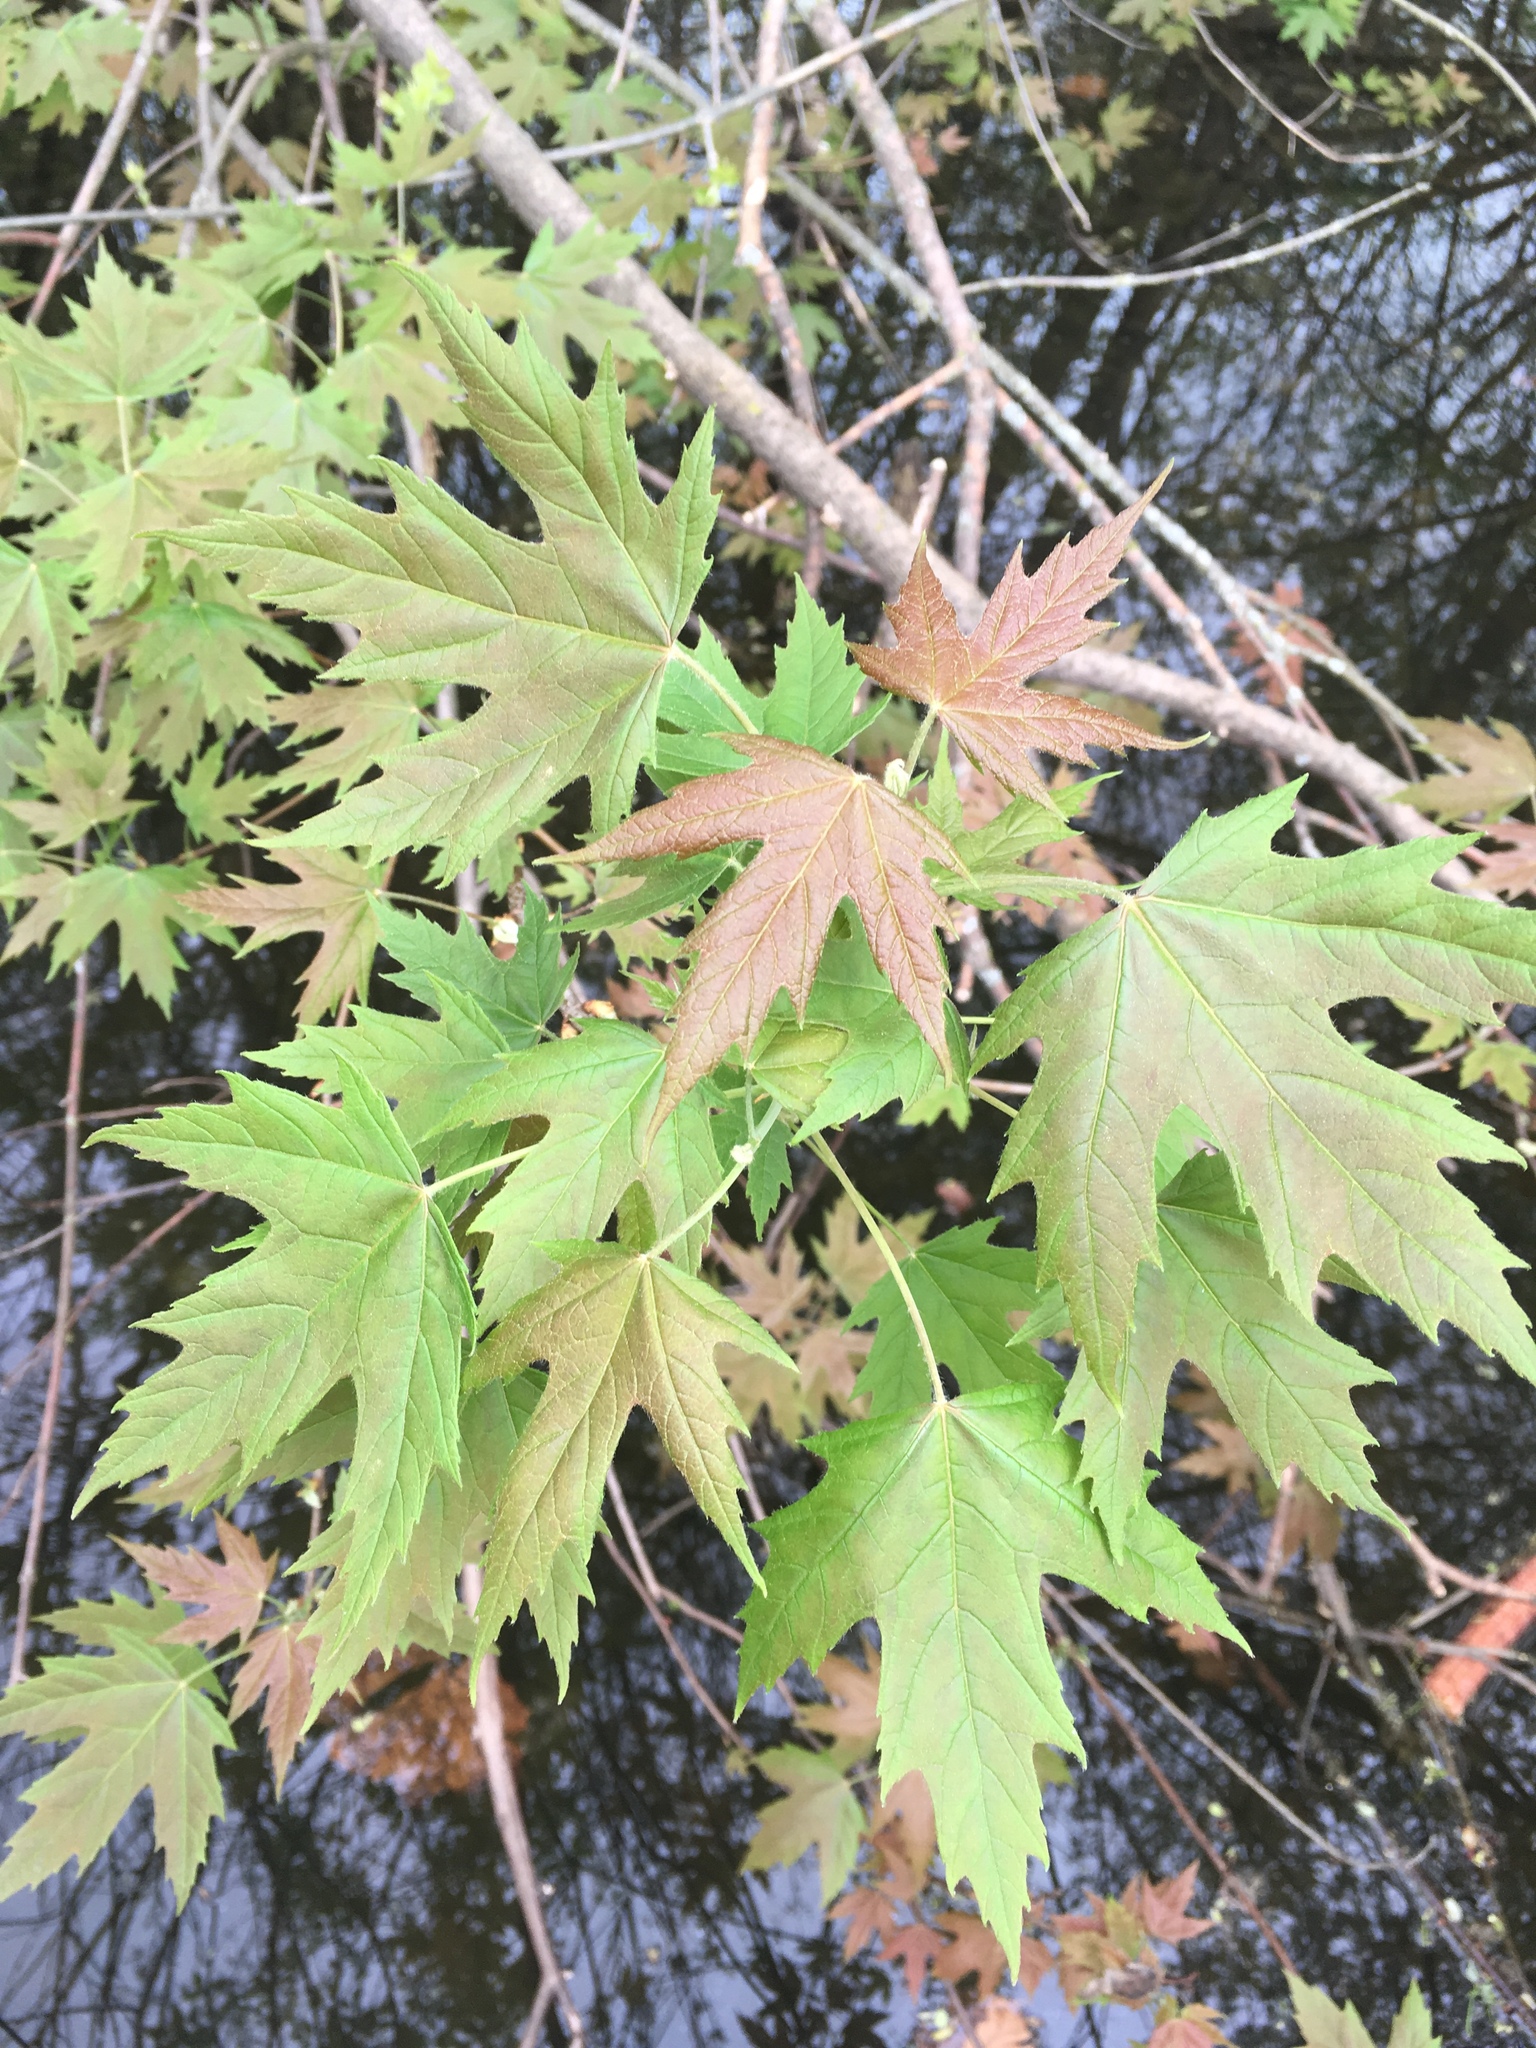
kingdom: Plantae
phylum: Tracheophyta
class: Magnoliopsida
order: Sapindales
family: Sapindaceae
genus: Acer
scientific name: Acer saccharinum
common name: Silver maple
